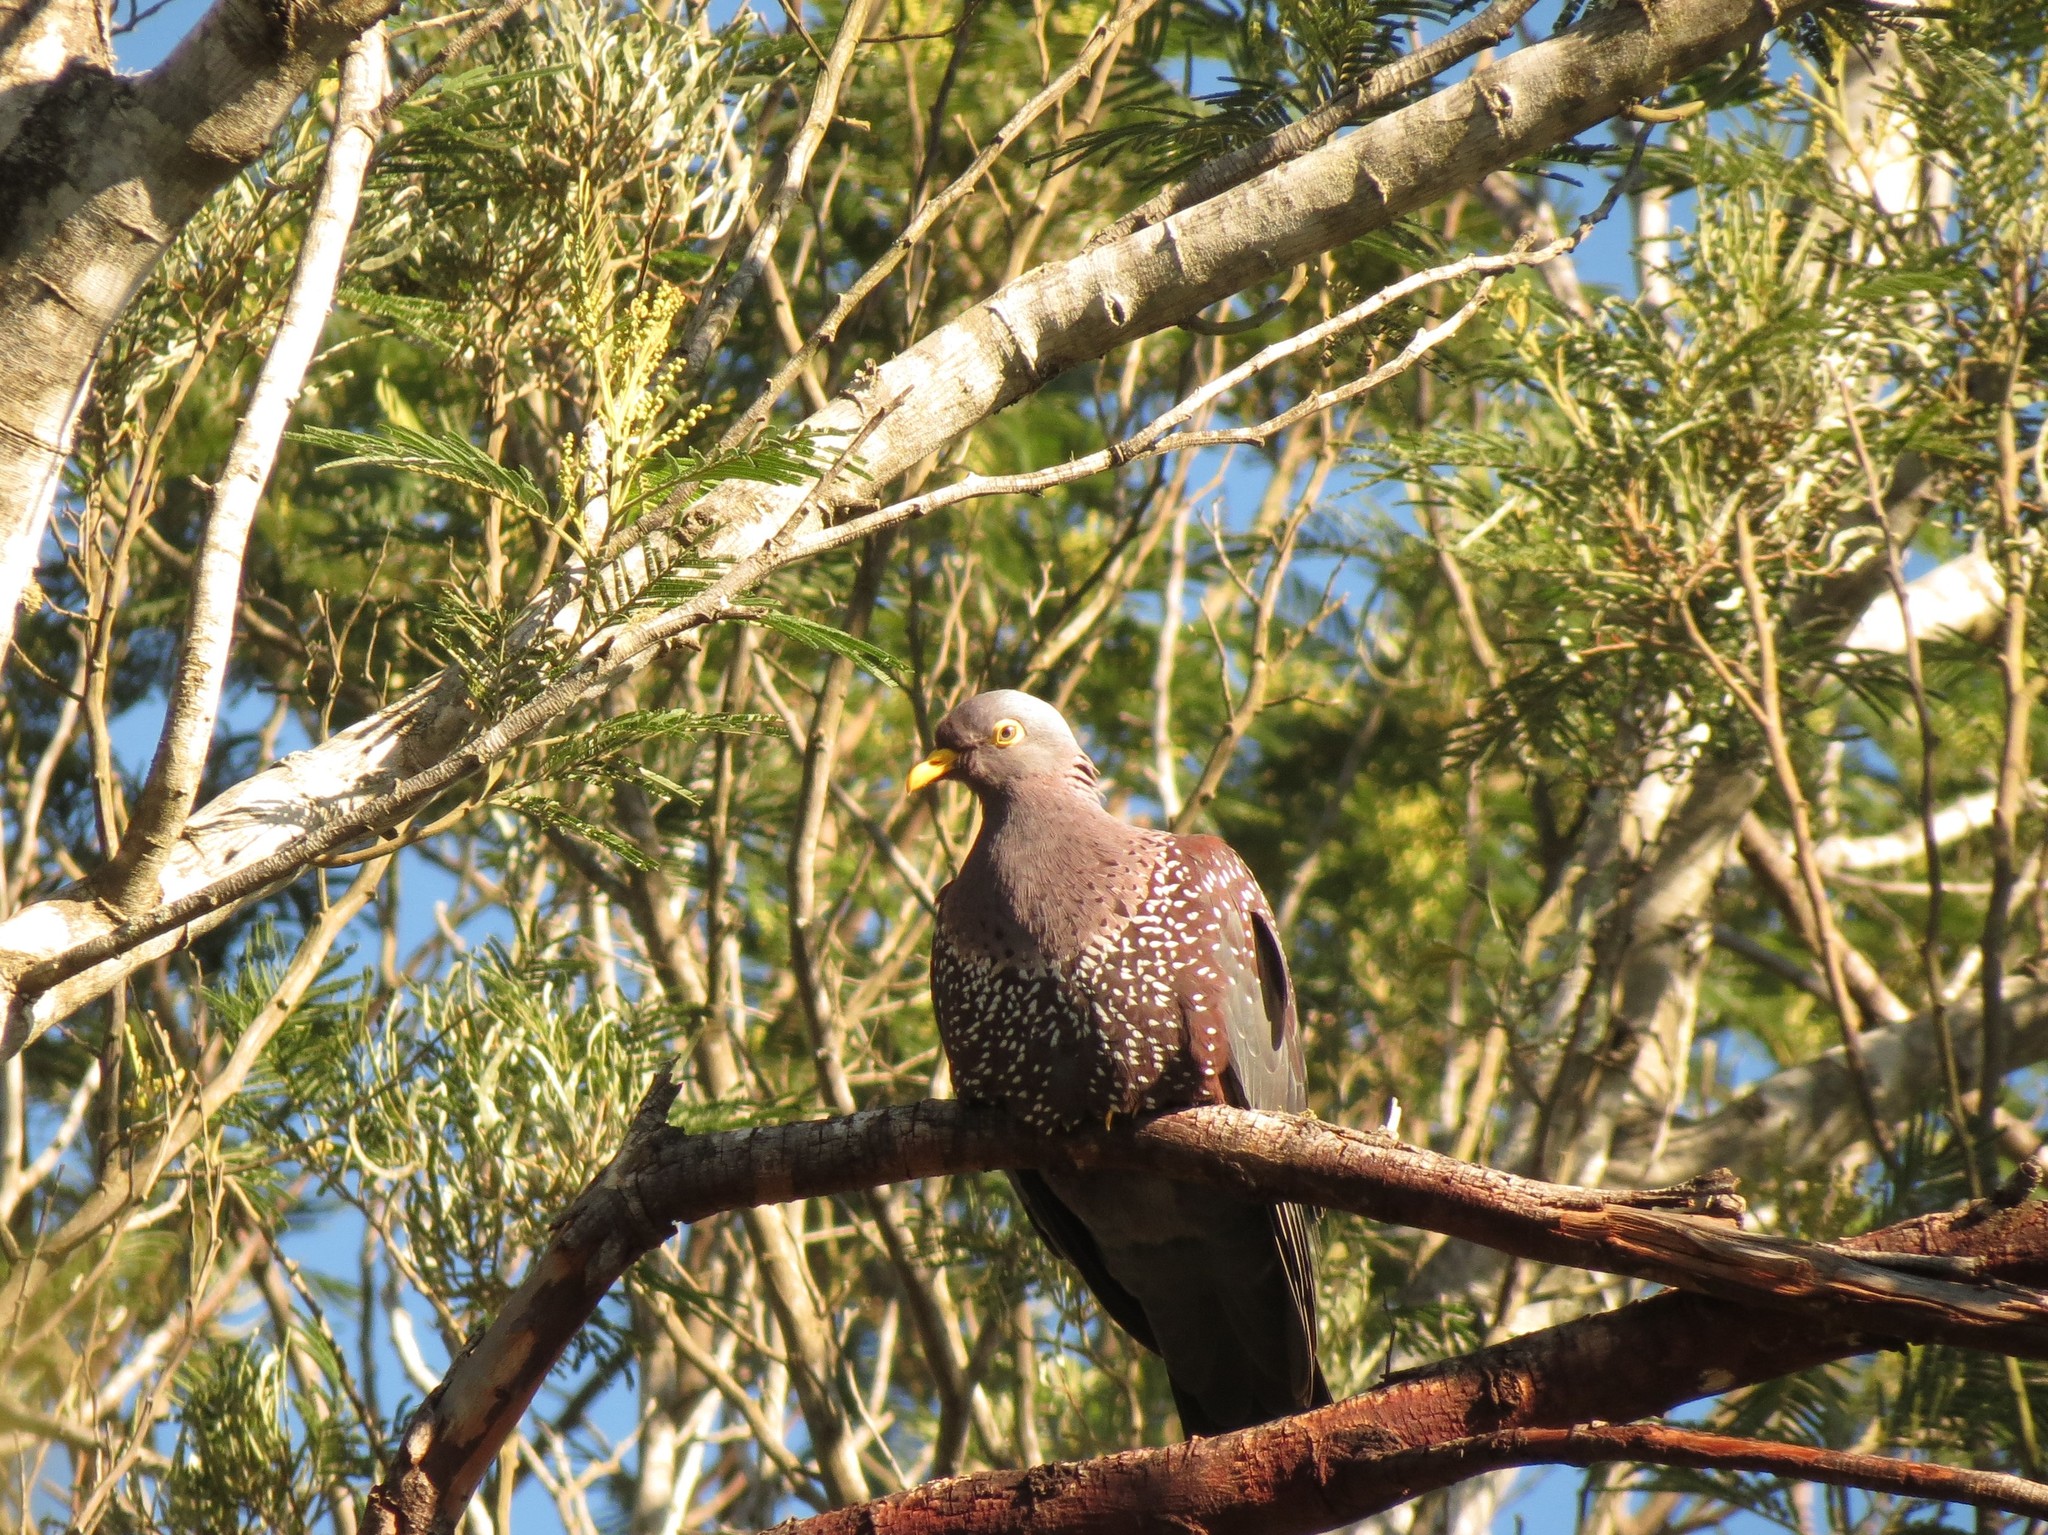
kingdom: Animalia
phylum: Chordata
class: Aves
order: Columbiformes
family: Columbidae
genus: Columba
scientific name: Columba arquatrix
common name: African olive pigeon
